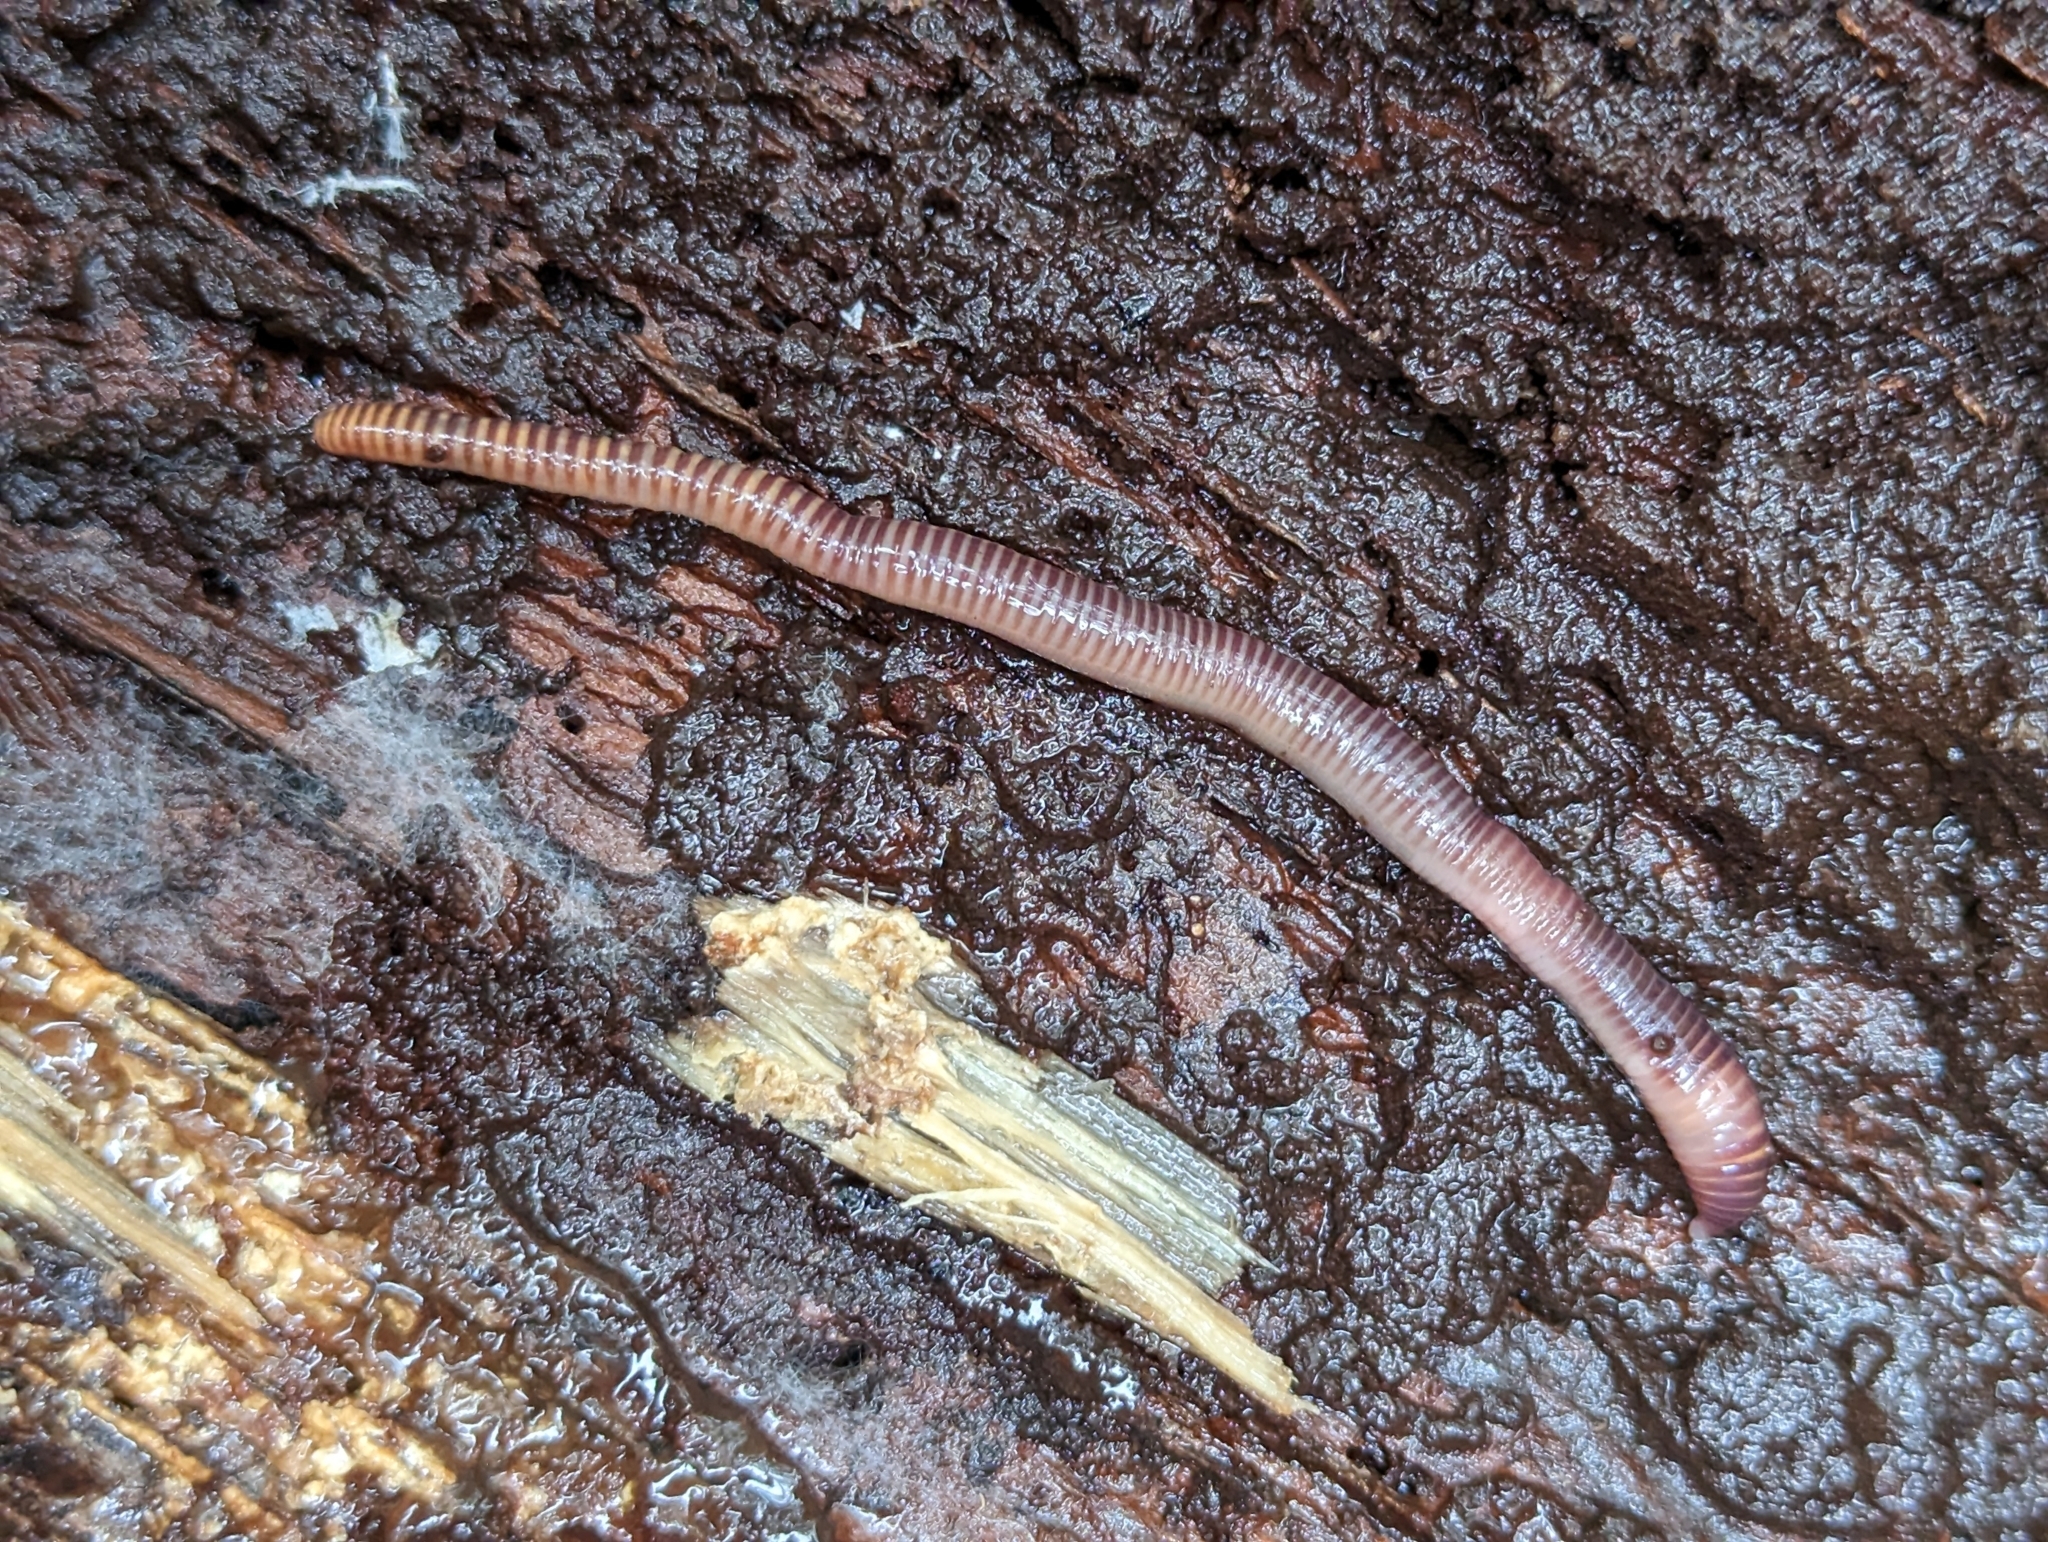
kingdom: Animalia
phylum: Annelida
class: Clitellata
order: Crassiclitellata
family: Lumbricidae
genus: Eisenia
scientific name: Eisenia fetida
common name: Red wiggler
